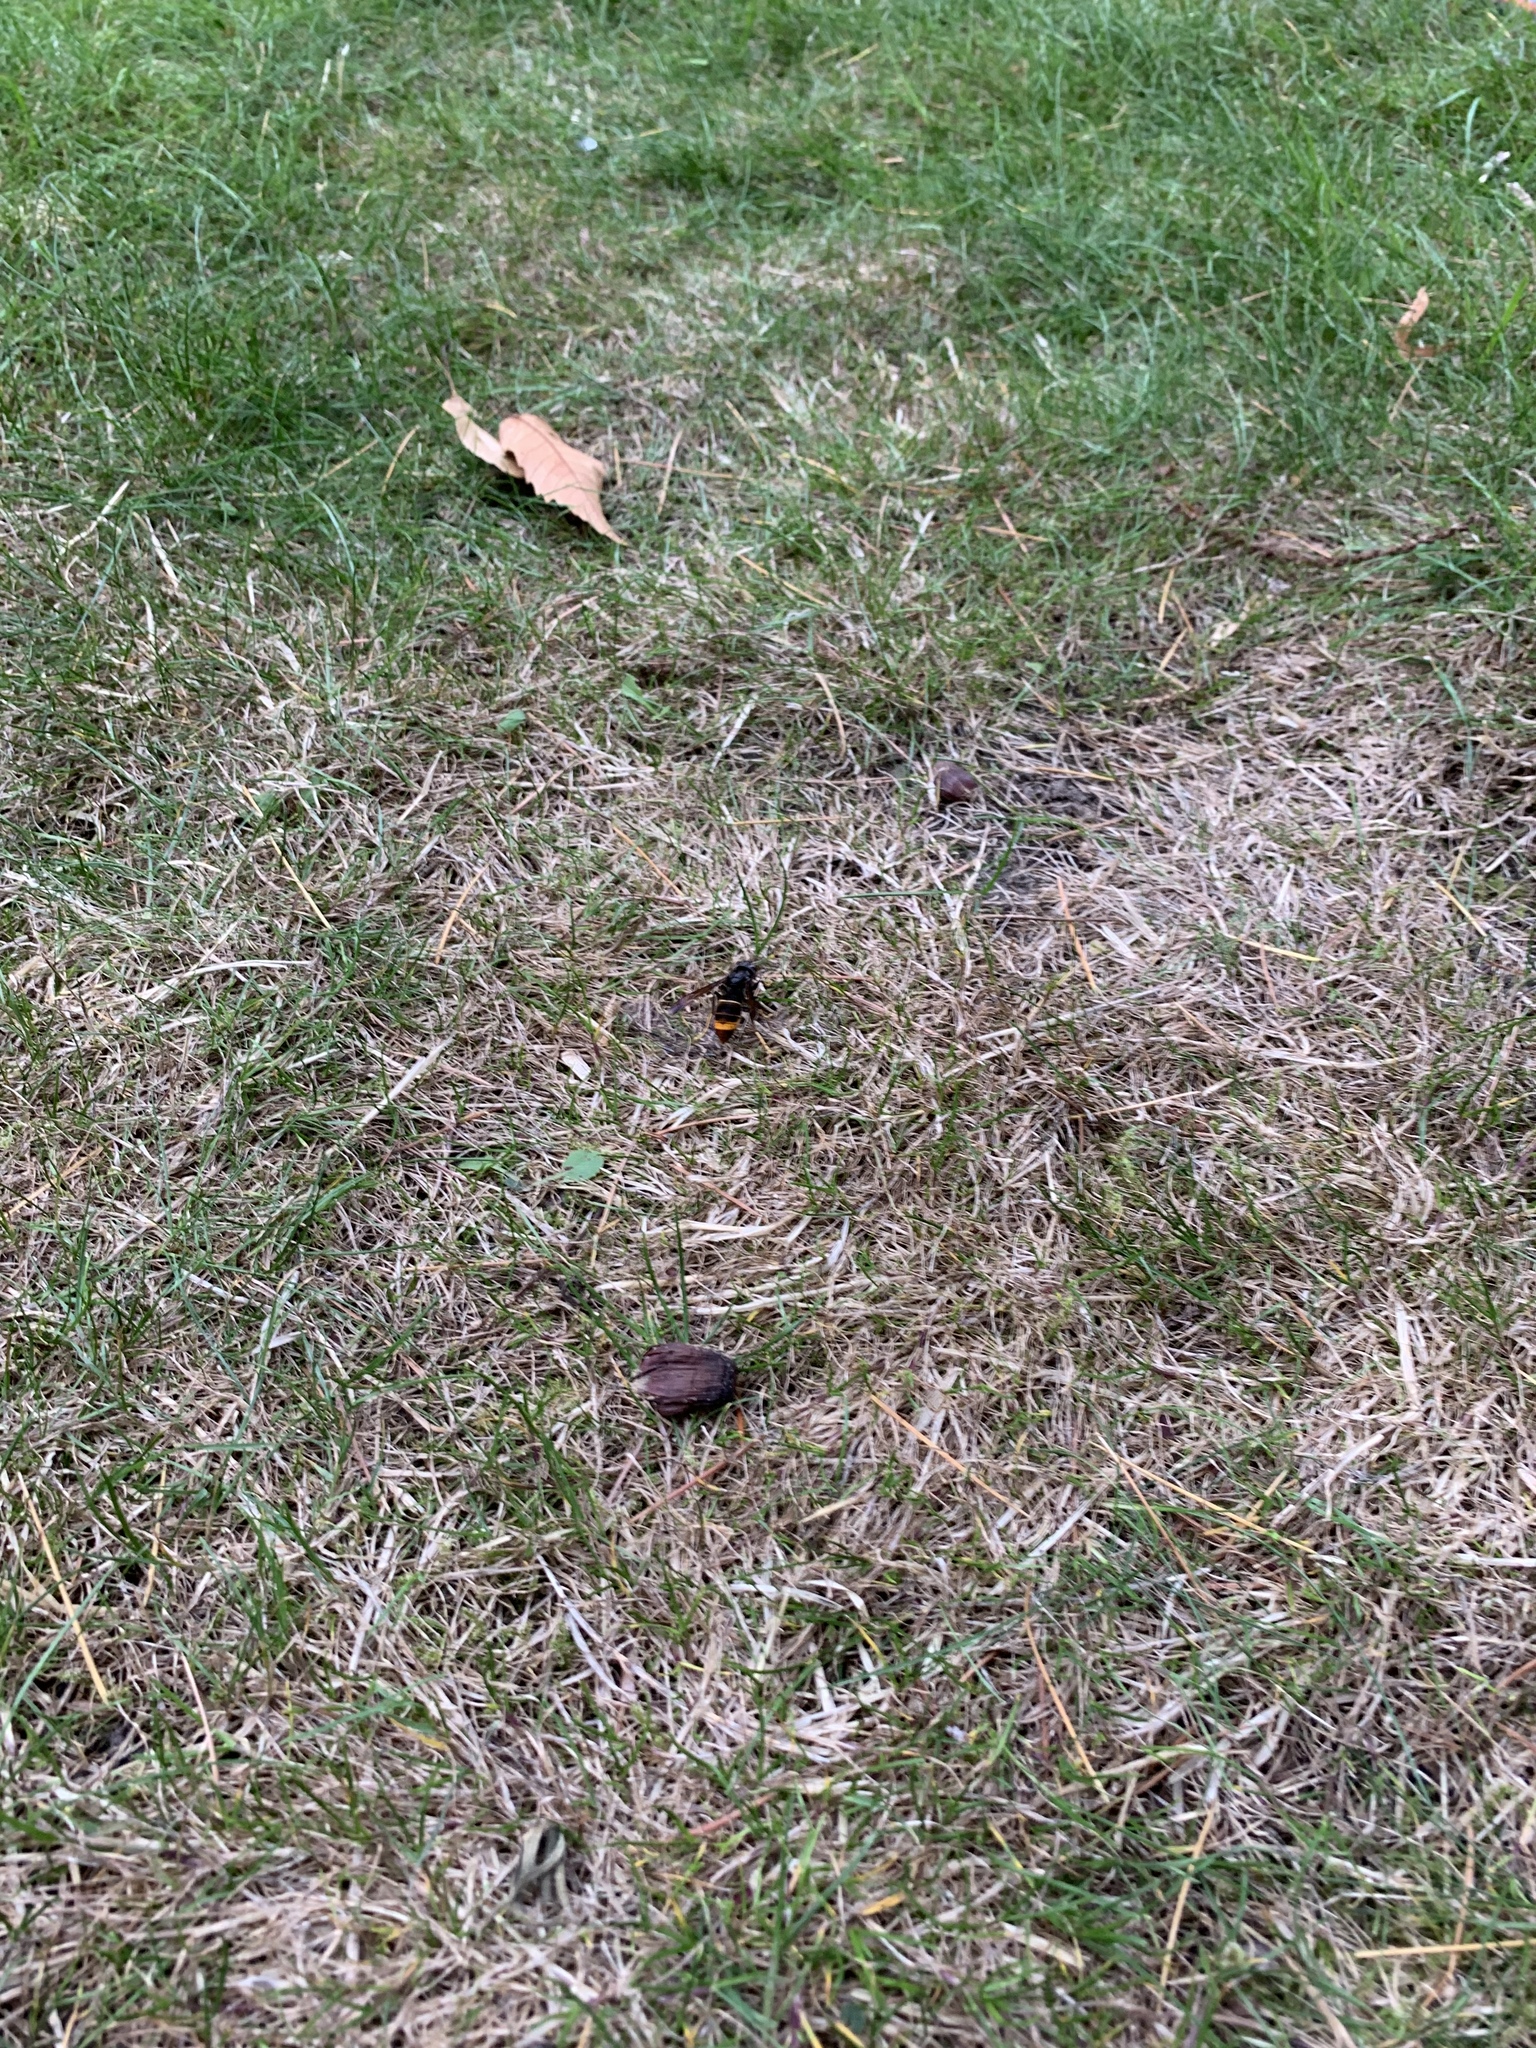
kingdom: Animalia
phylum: Arthropoda
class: Insecta
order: Hymenoptera
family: Vespidae
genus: Vespa
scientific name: Vespa velutina
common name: Asian hornet
